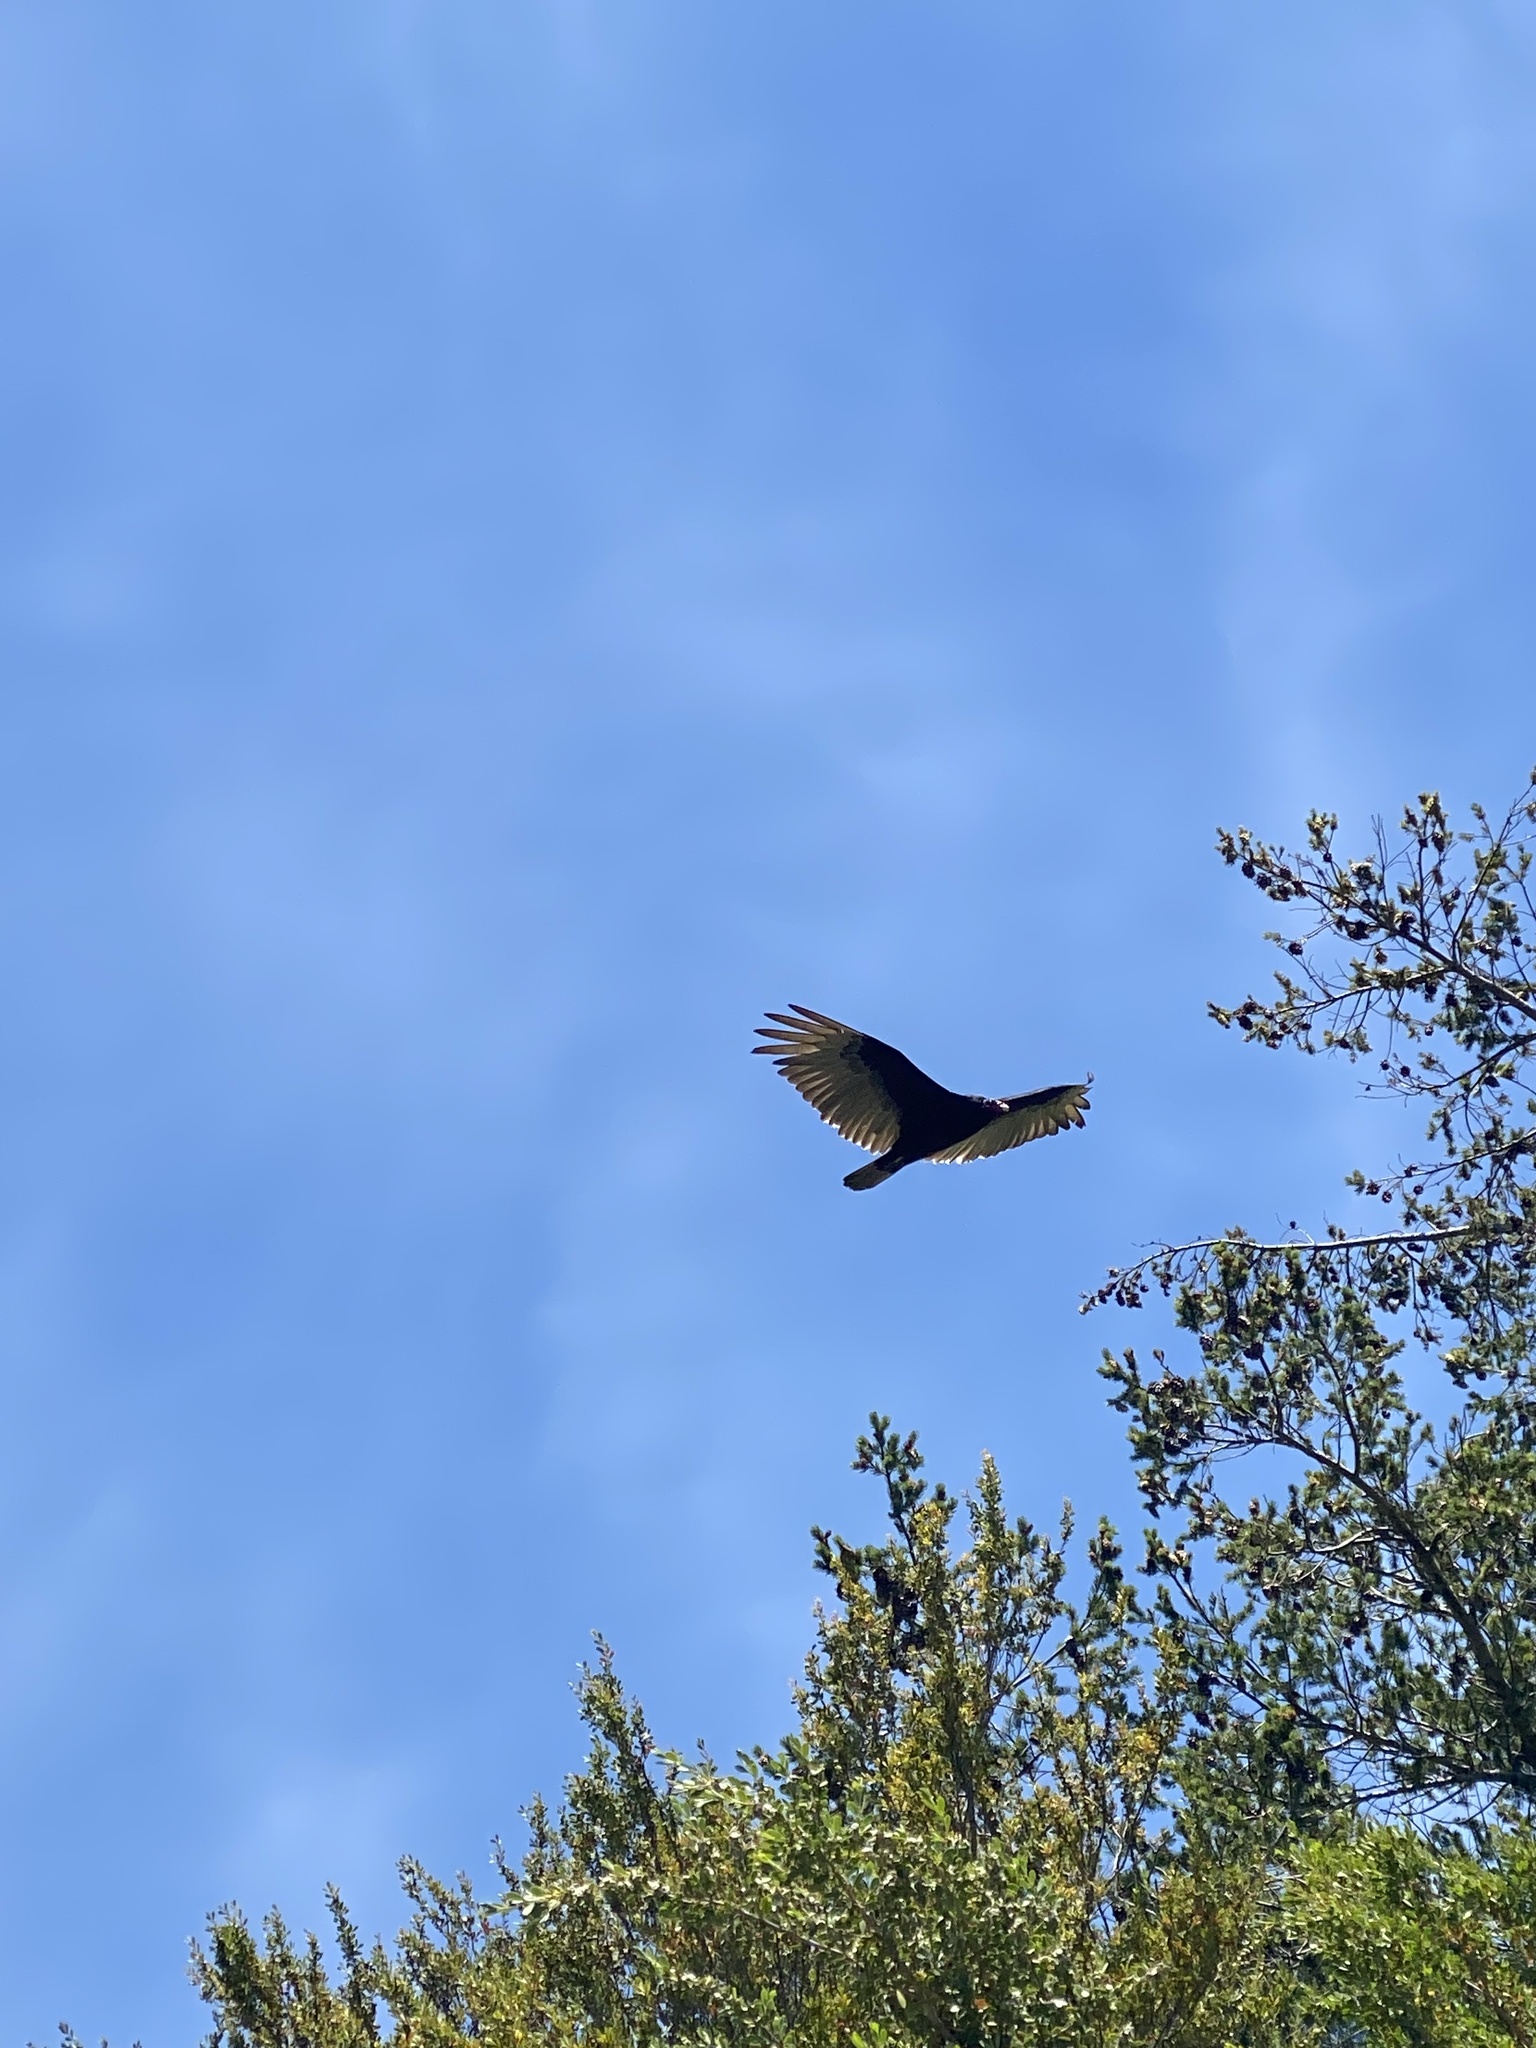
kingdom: Animalia
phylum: Chordata
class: Aves
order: Accipitriformes
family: Cathartidae
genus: Cathartes
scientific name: Cathartes aura
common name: Turkey vulture
